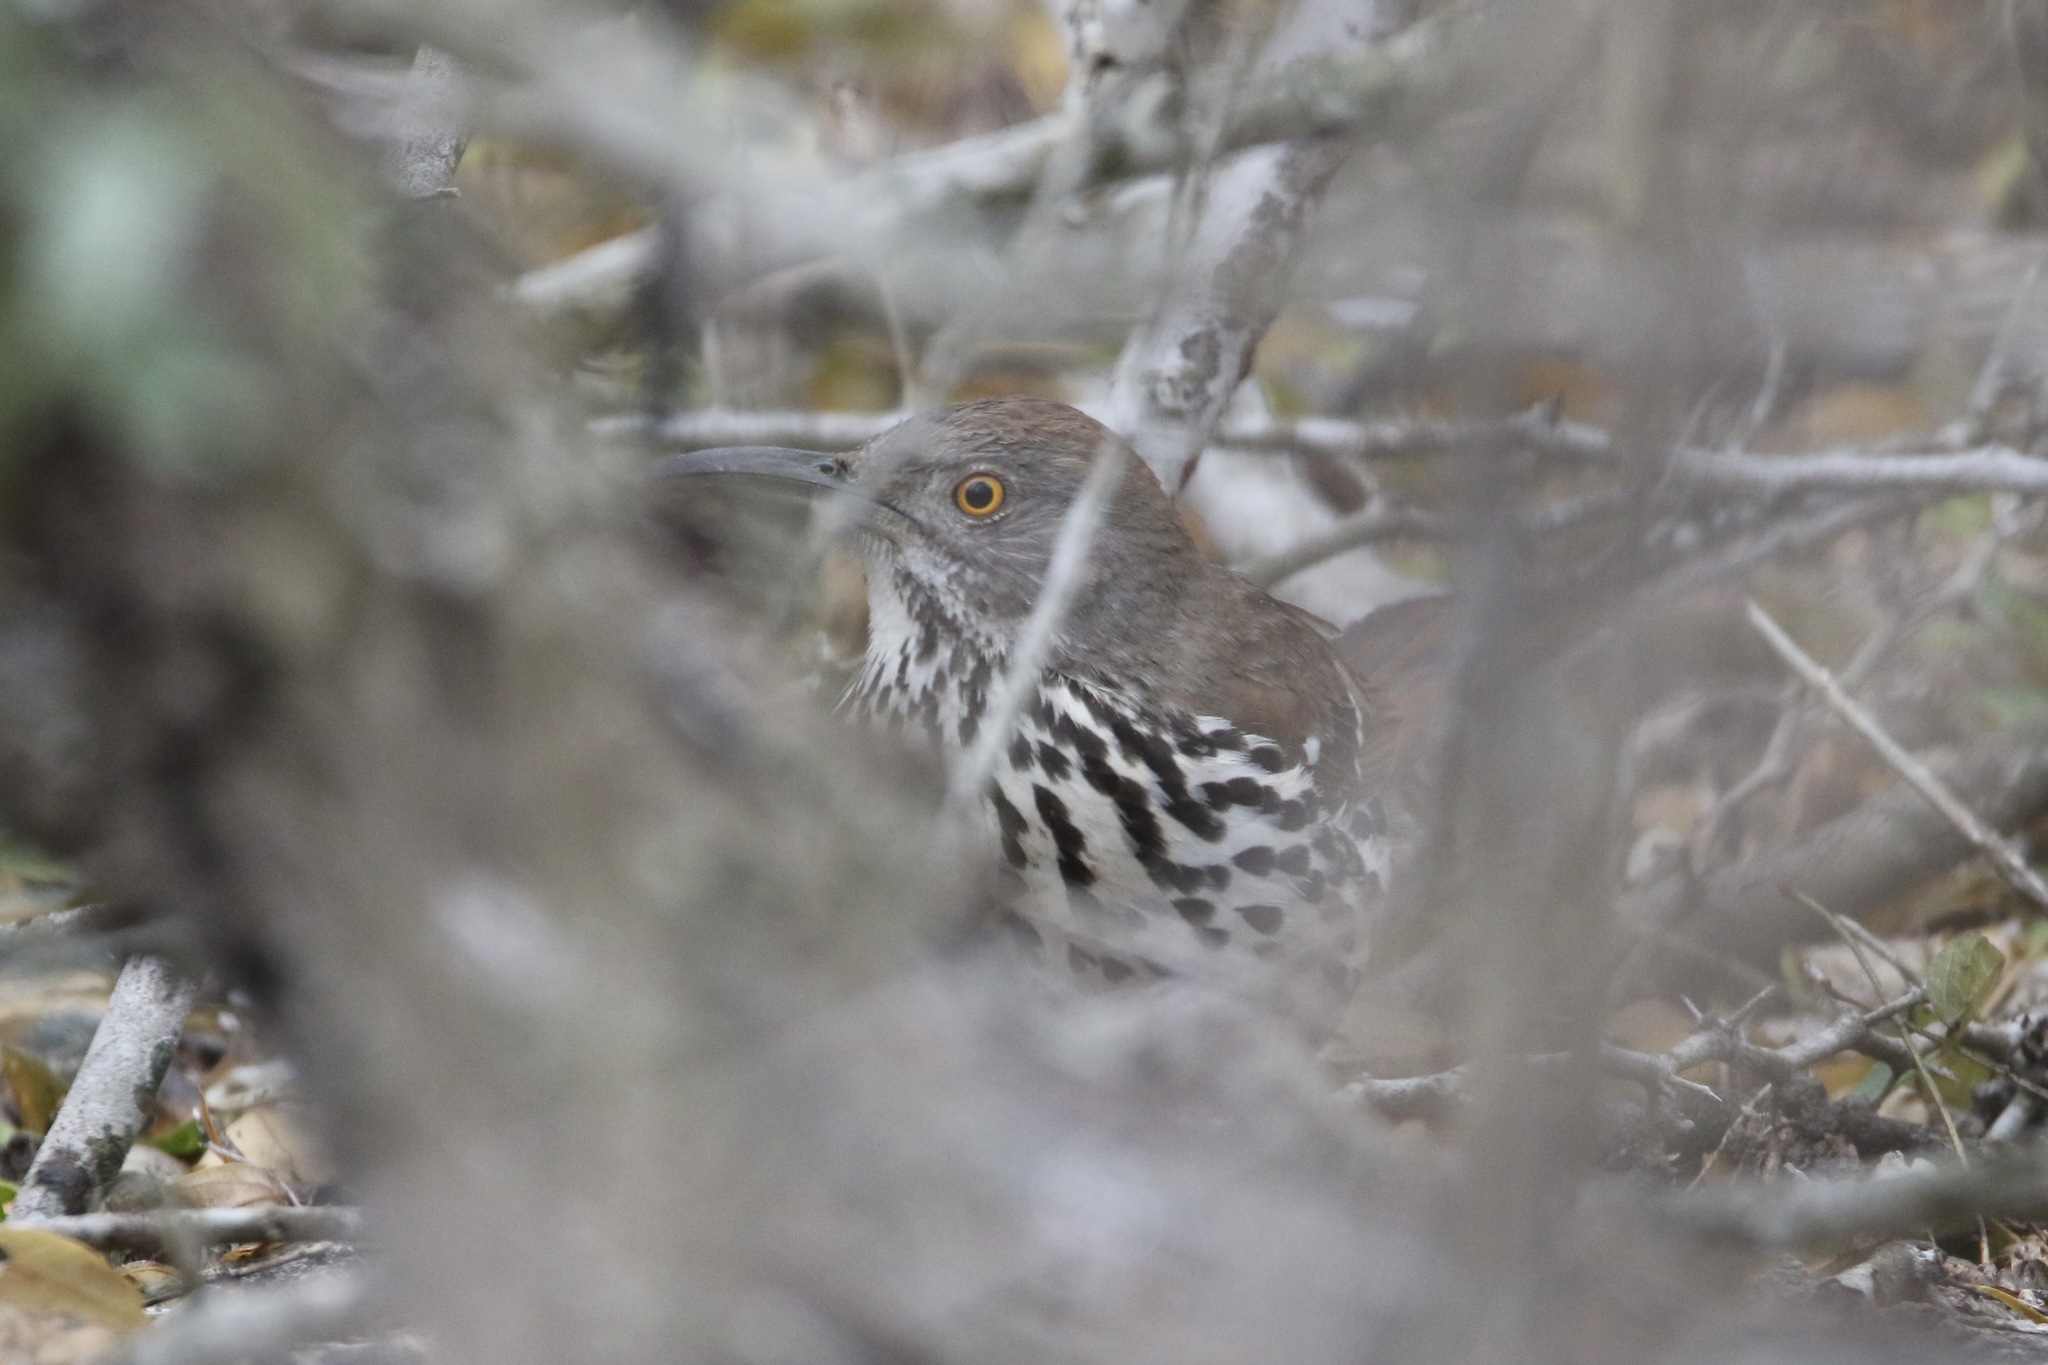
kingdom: Animalia
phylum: Chordata
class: Aves
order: Passeriformes
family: Mimidae
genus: Toxostoma
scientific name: Toxostoma longirostre
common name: Long-billed thrasher
